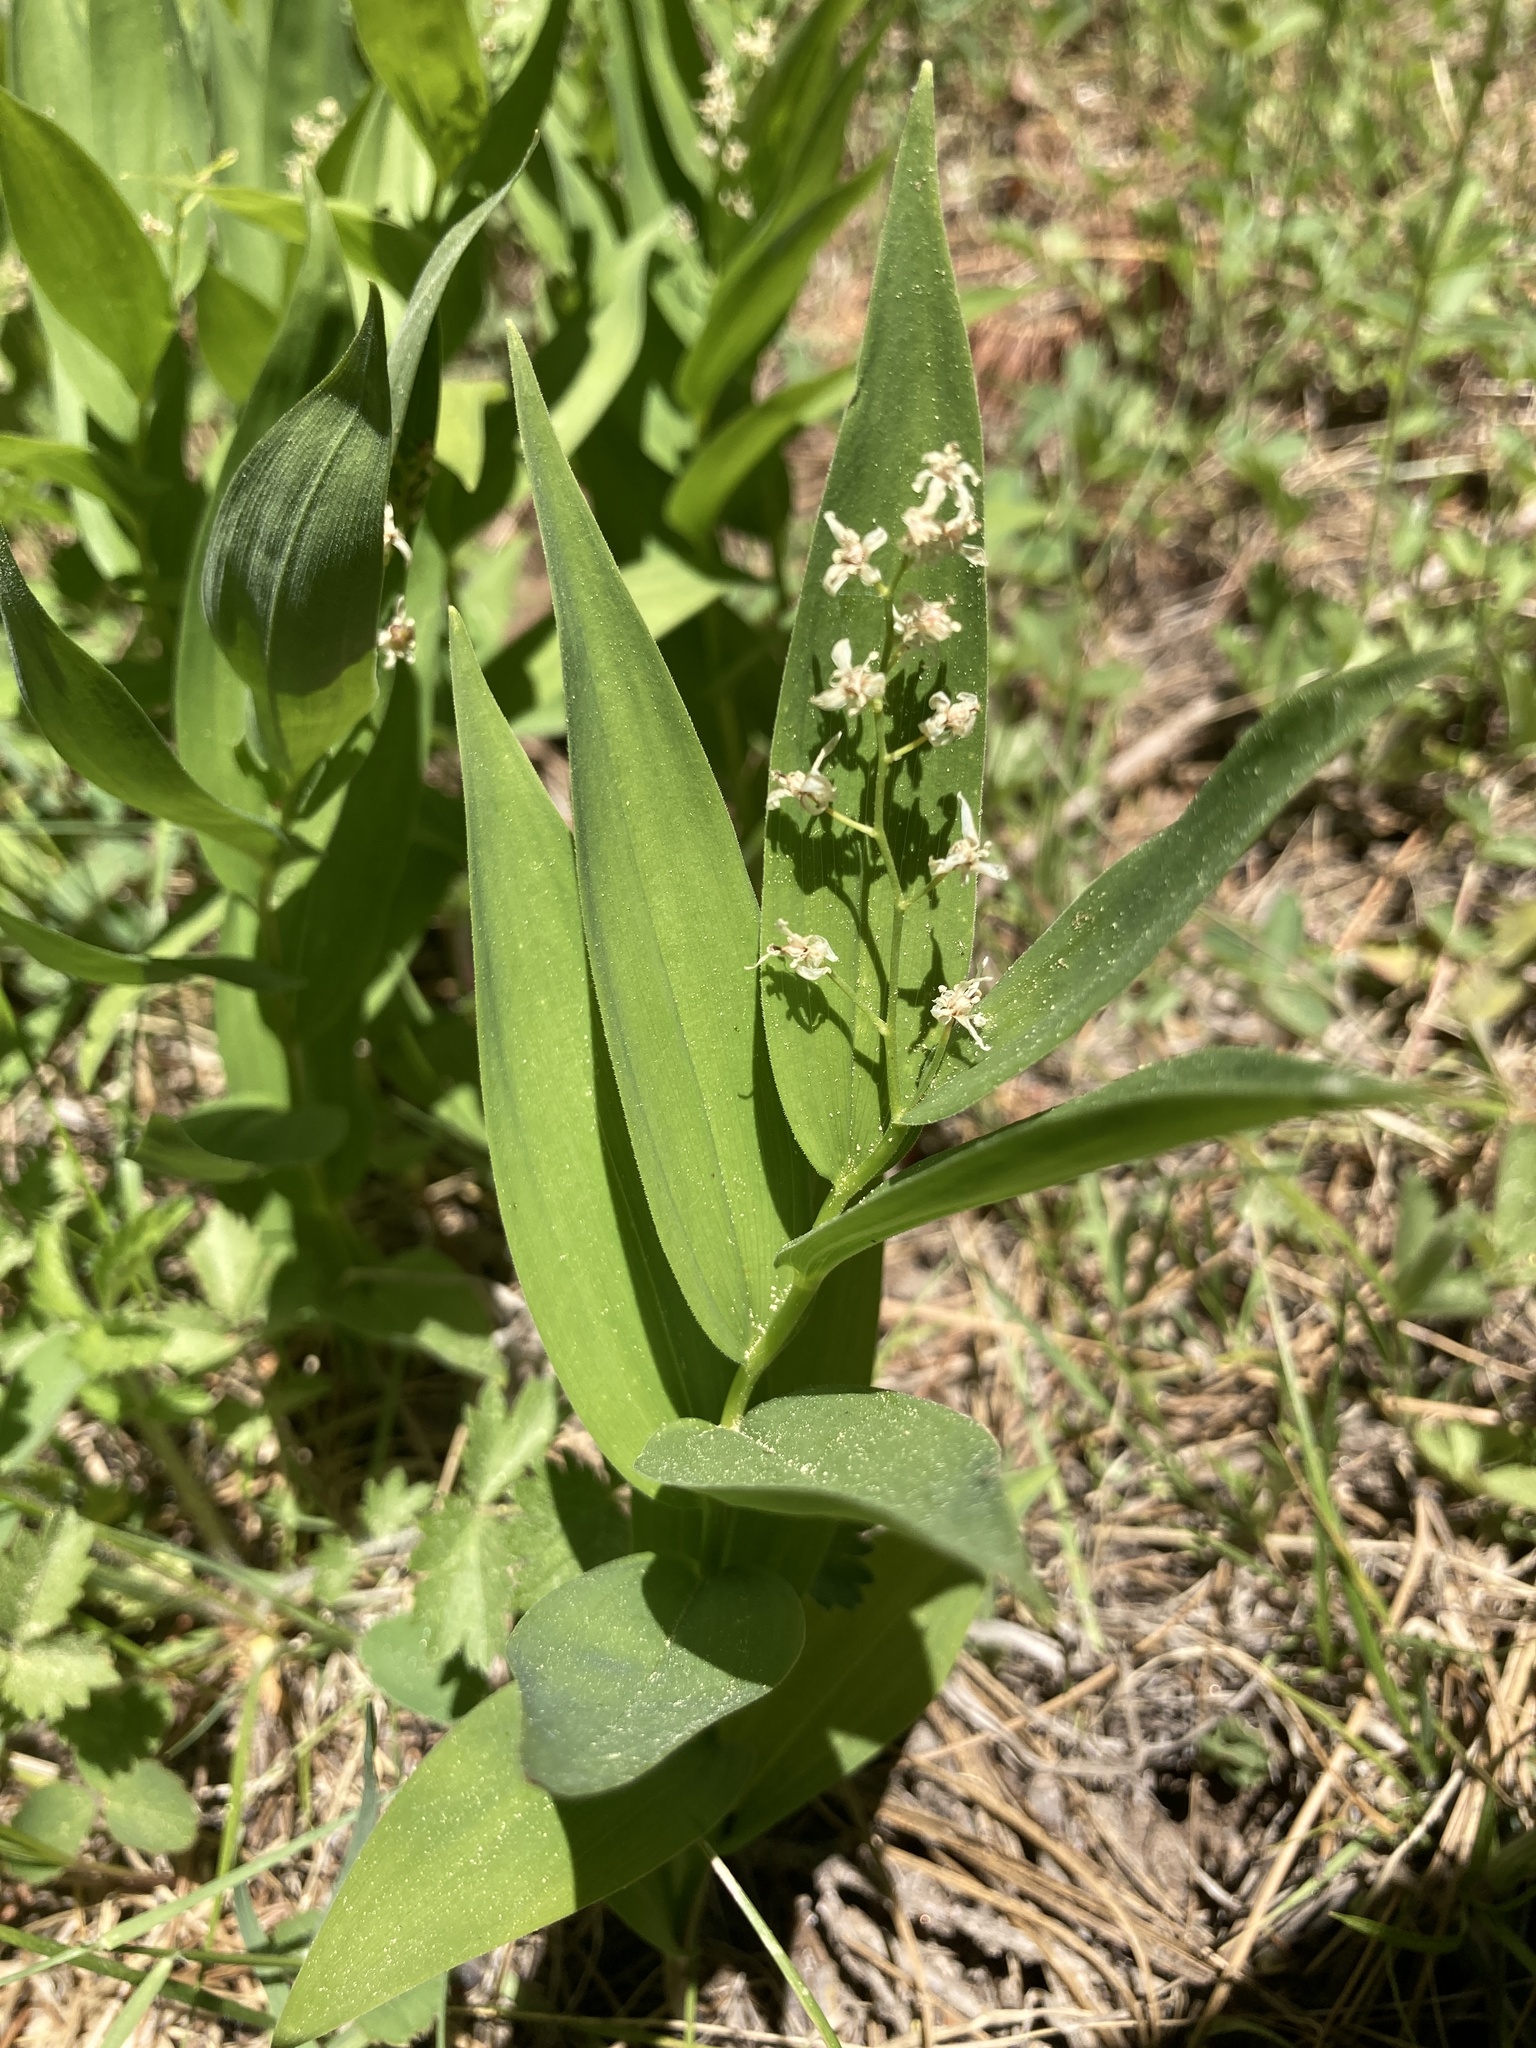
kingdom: Plantae
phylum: Tracheophyta
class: Liliopsida
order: Asparagales
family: Asparagaceae
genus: Maianthemum
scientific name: Maianthemum stellatum
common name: Little false solomon's seal
